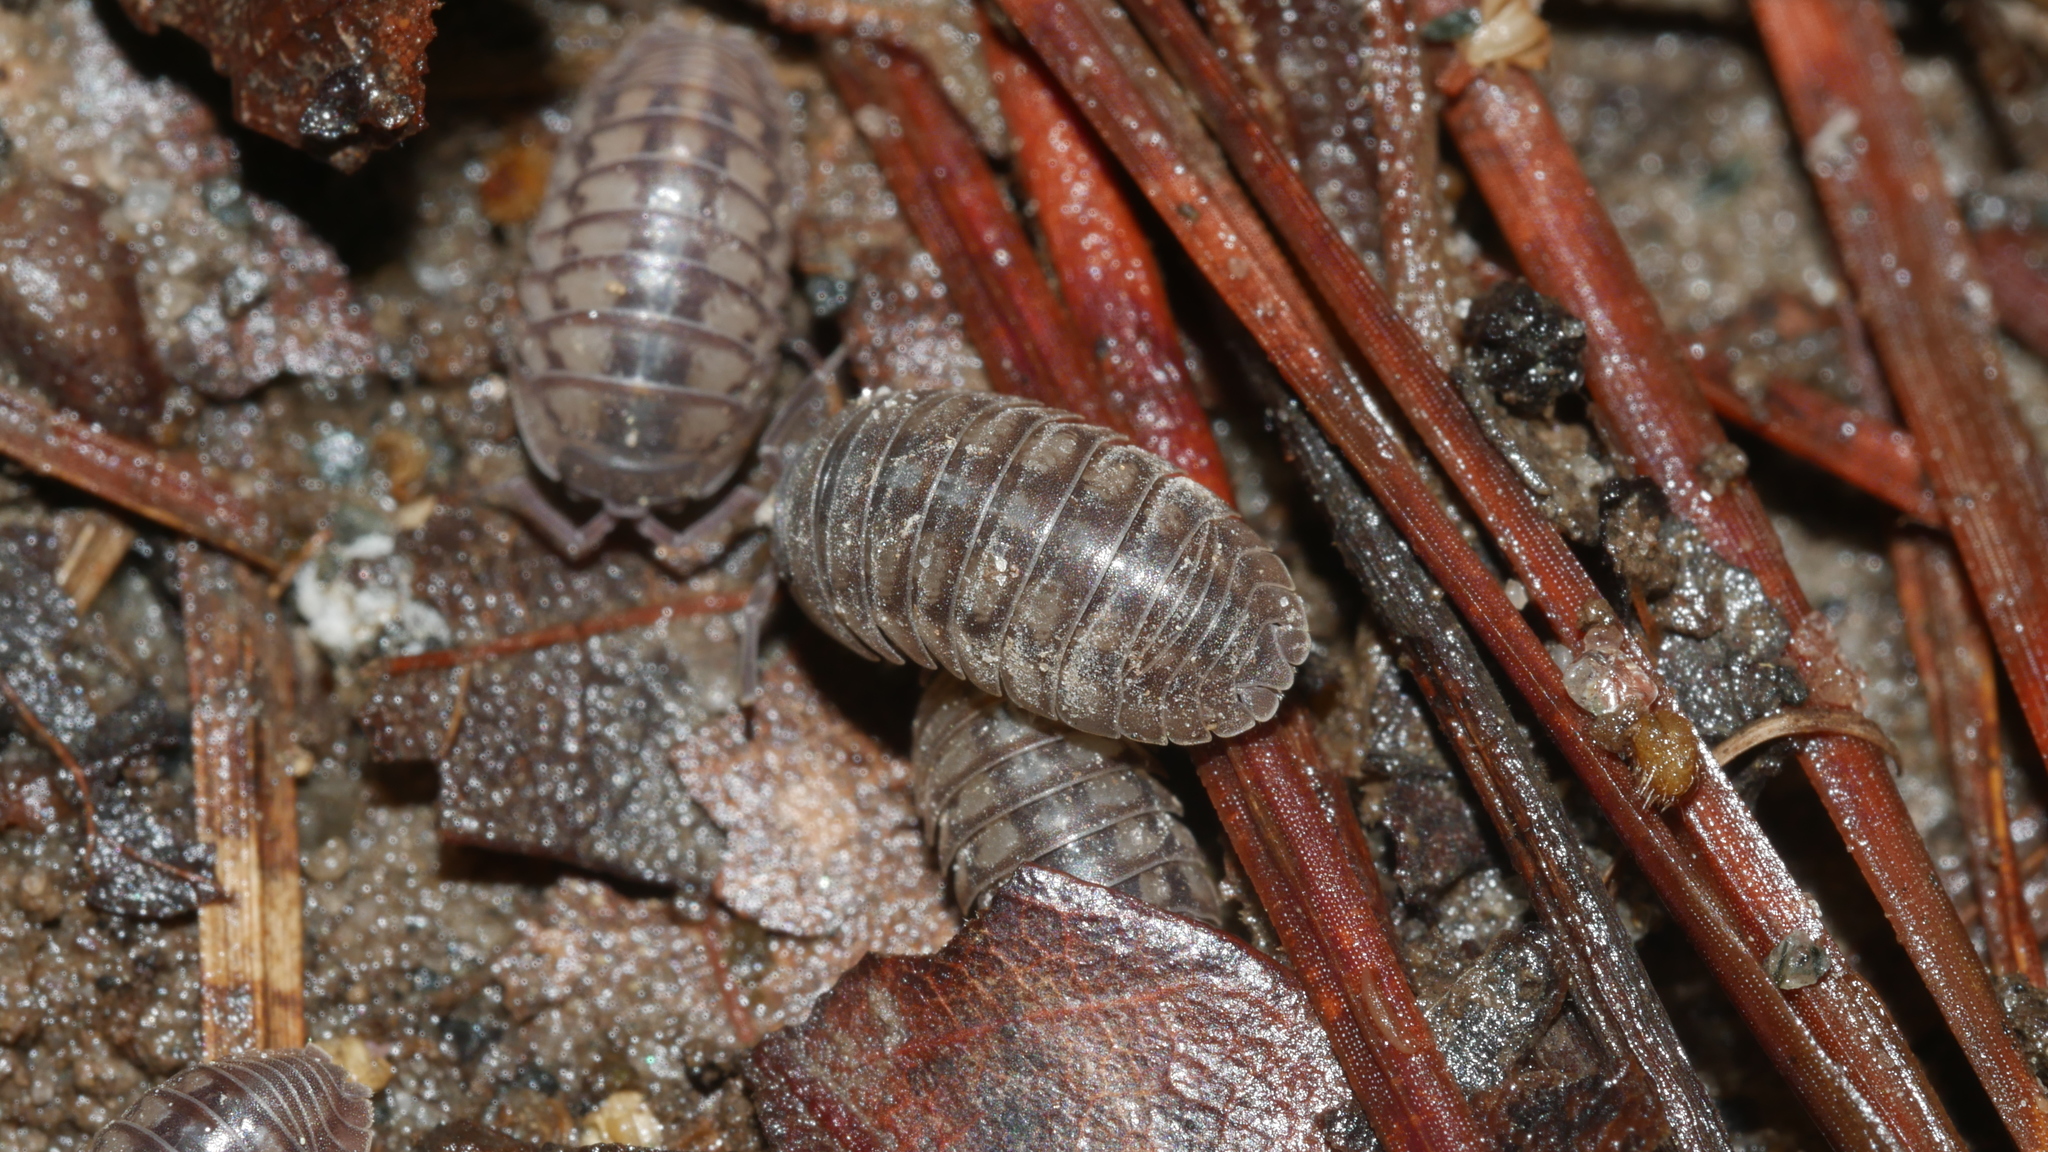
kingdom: Animalia
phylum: Arthropoda
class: Malacostraca
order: Isopoda
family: Armadillidiidae
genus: Armadillidium
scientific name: Armadillidium nasatum
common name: Isopod
